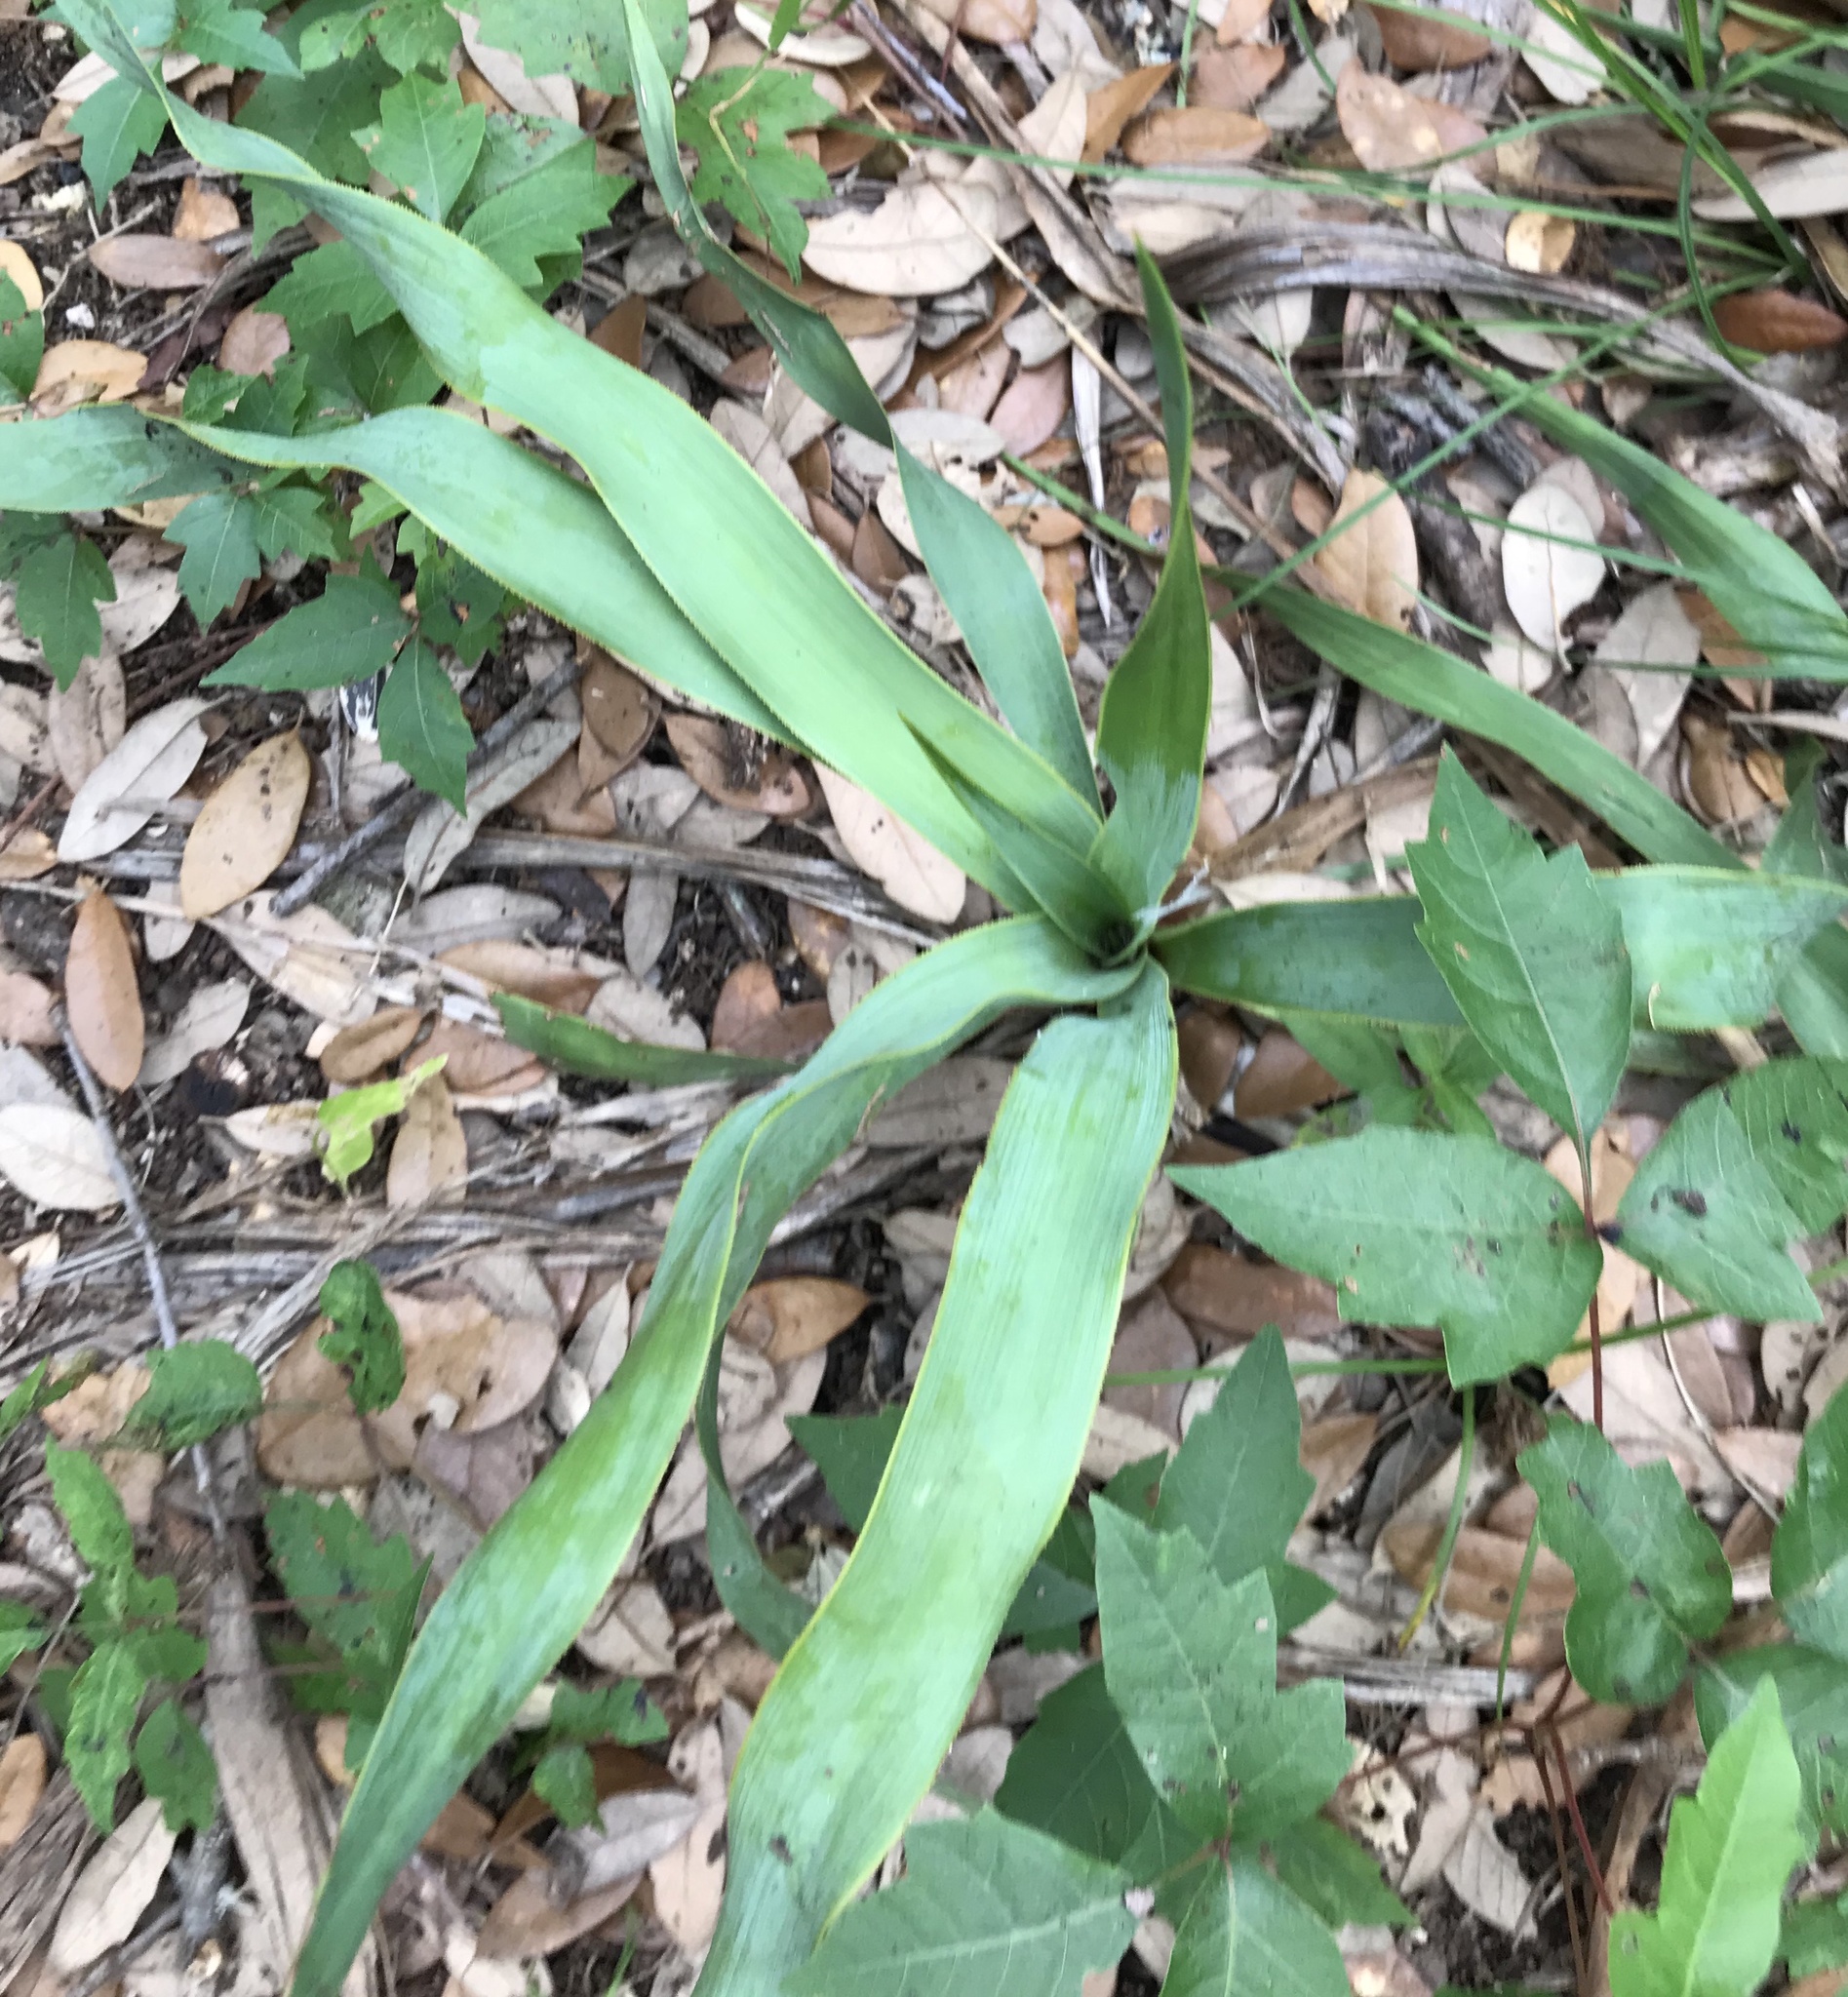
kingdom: Plantae
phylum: Tracheophyta
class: Liliopsida
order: Asparagales
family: Asparagaceae
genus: Yucca
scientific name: Yucca rupicola
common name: Twisted-leaf spanish-dagger
